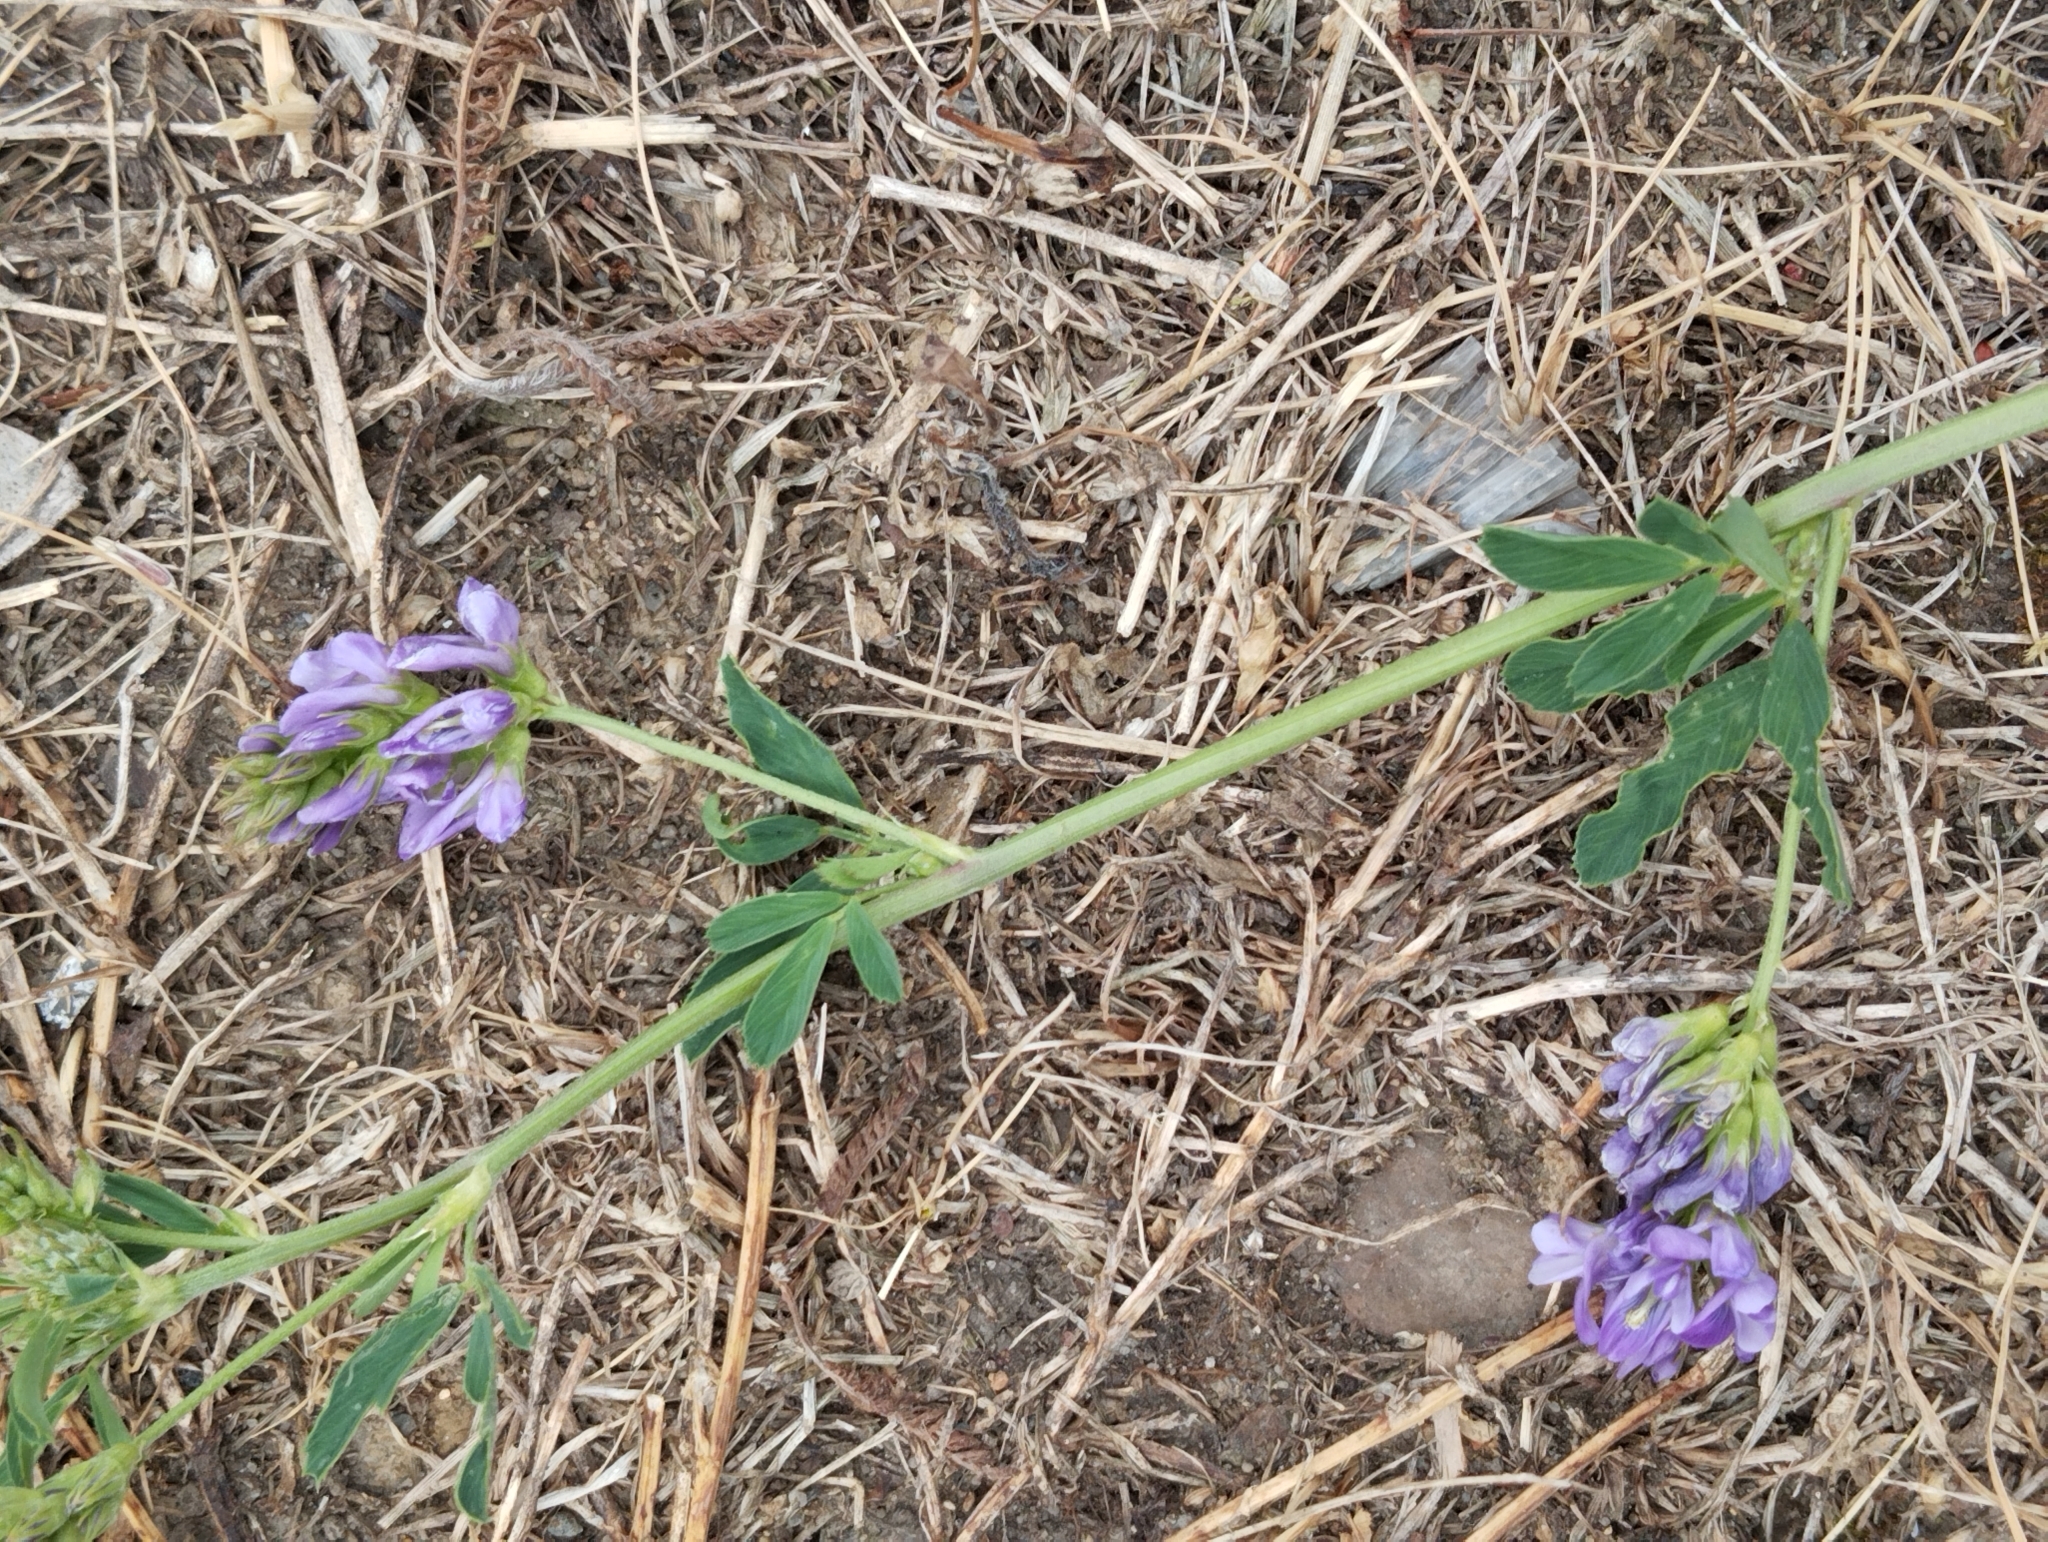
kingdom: Plantae
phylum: Tracheophyta
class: Magnoliopsida
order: Fabales
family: Fabaceae
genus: Medicago
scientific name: Medicago sativa
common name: Alfalfa
